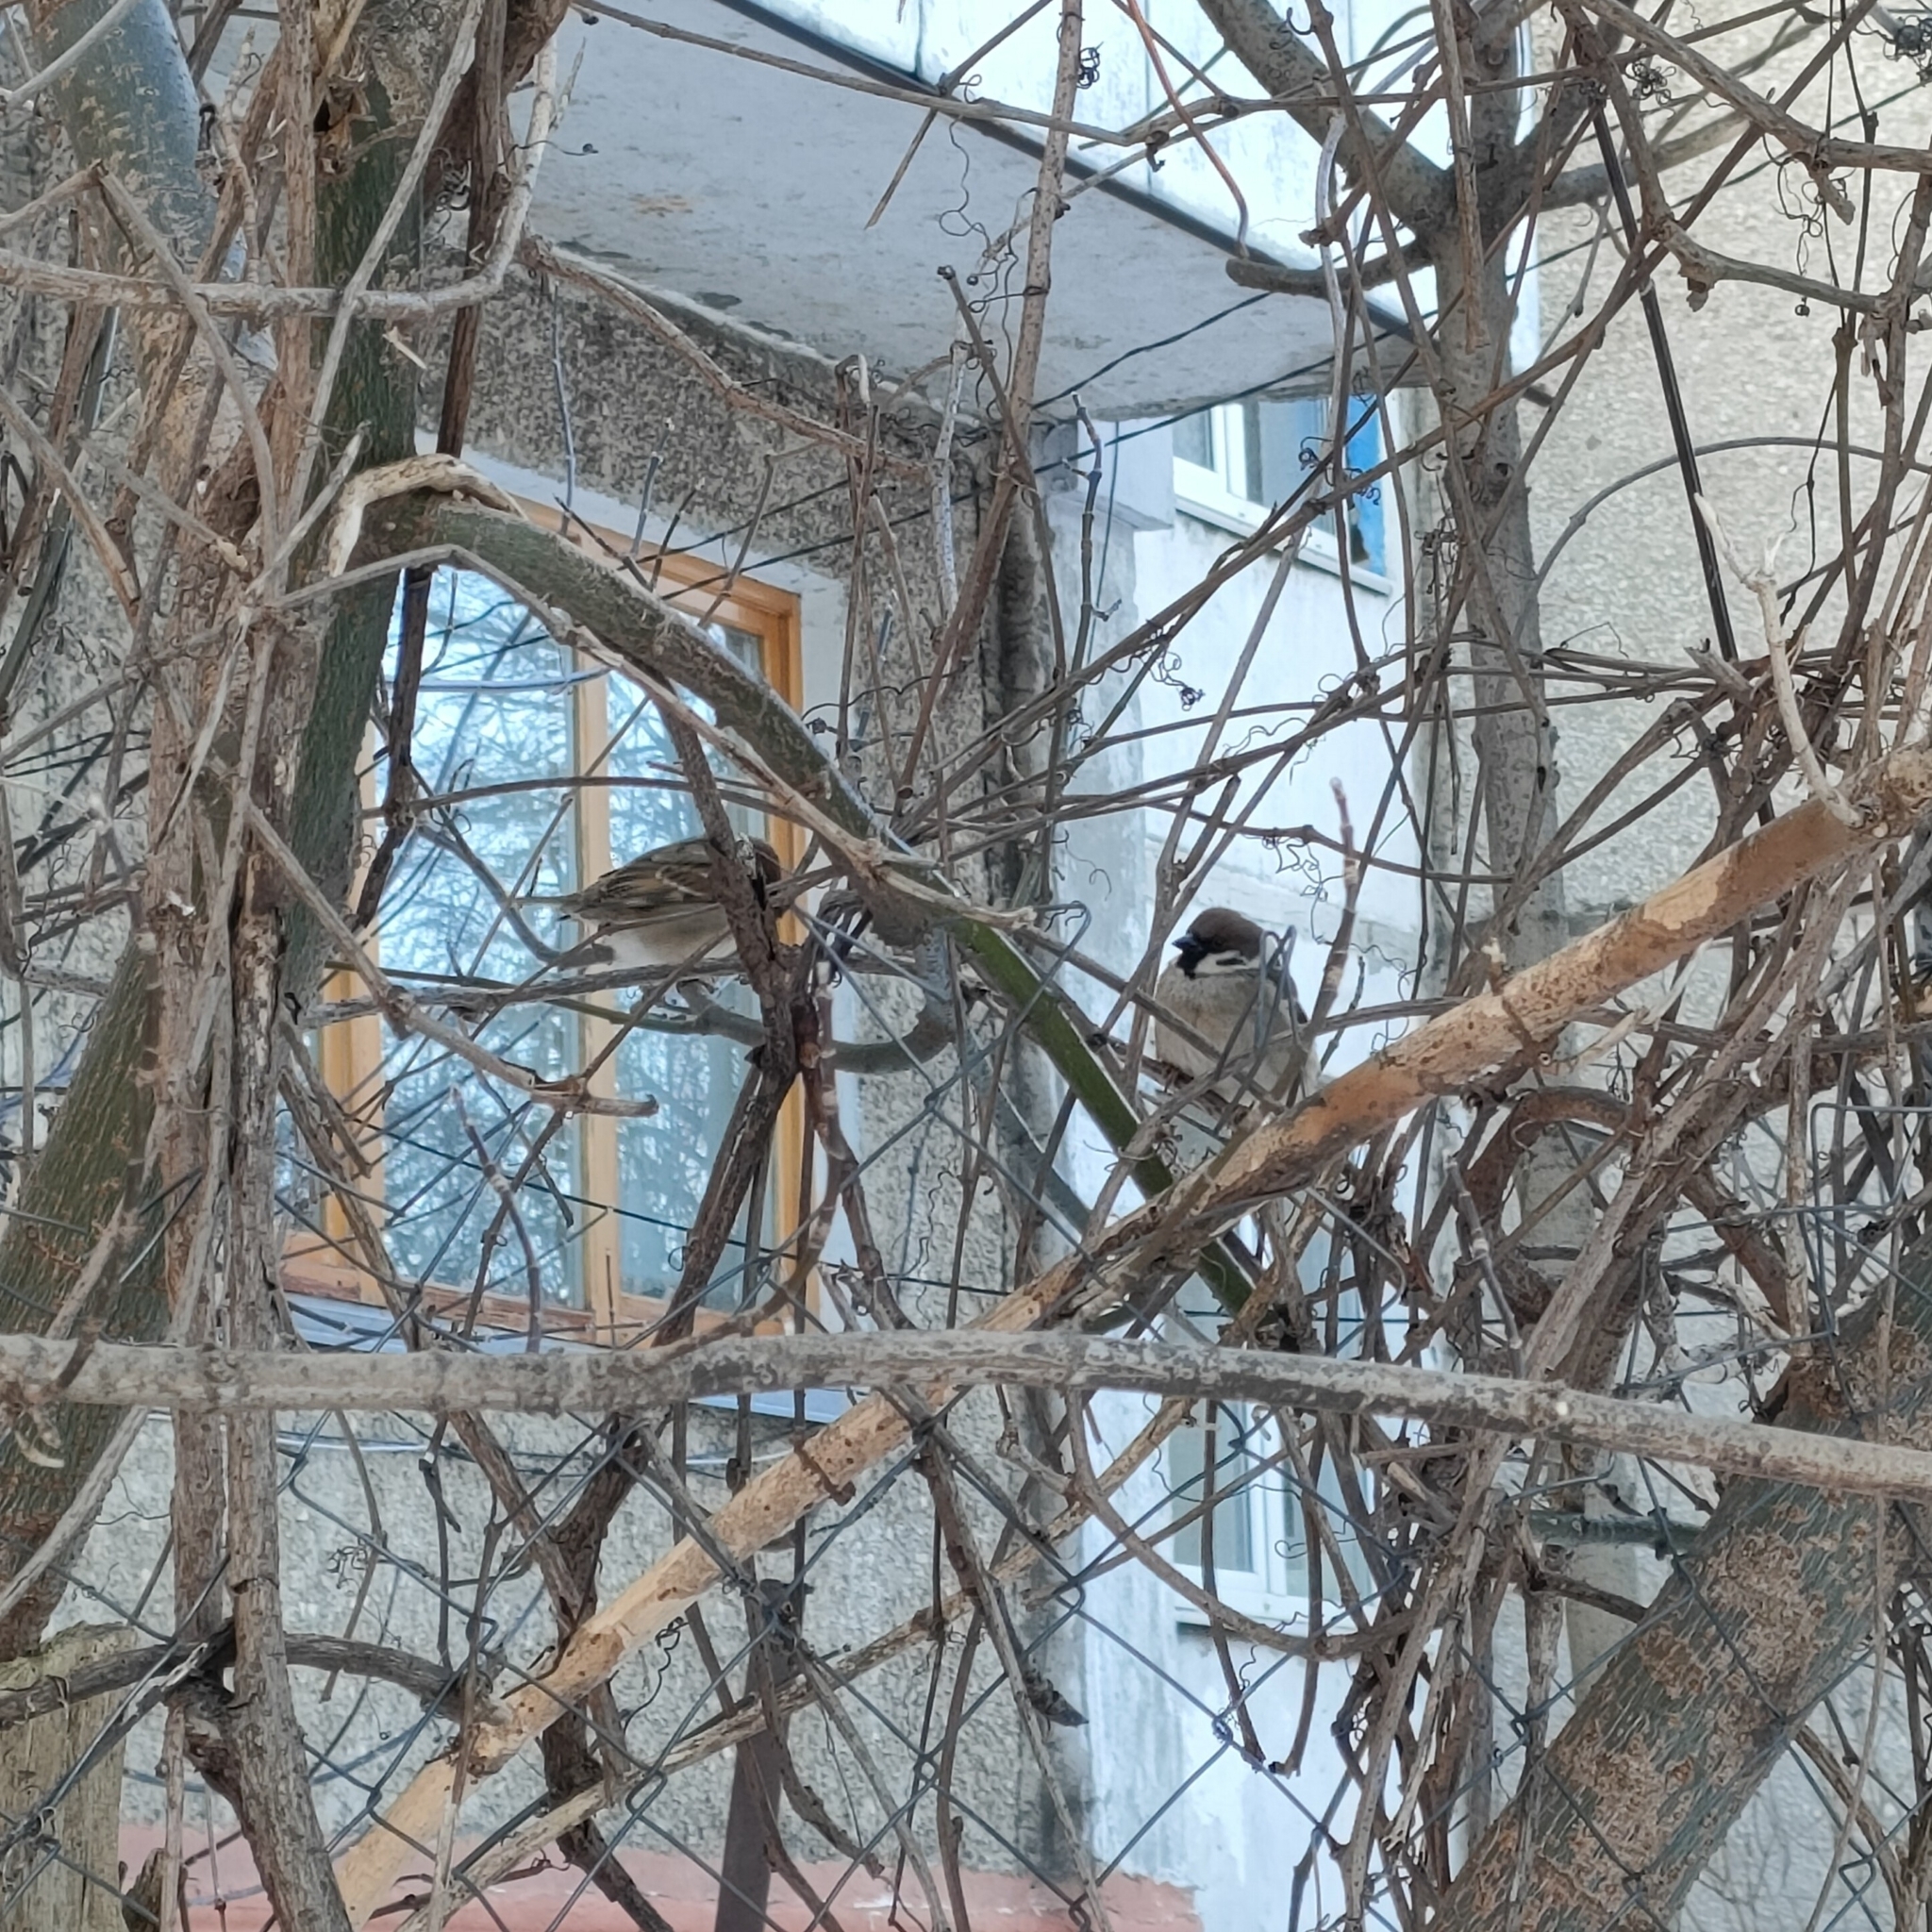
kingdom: Animalia
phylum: Chordata
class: Aves
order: Passeriformes
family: Passeridae
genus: Passer
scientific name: Passer montanus
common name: Eurasian tree sparrow
